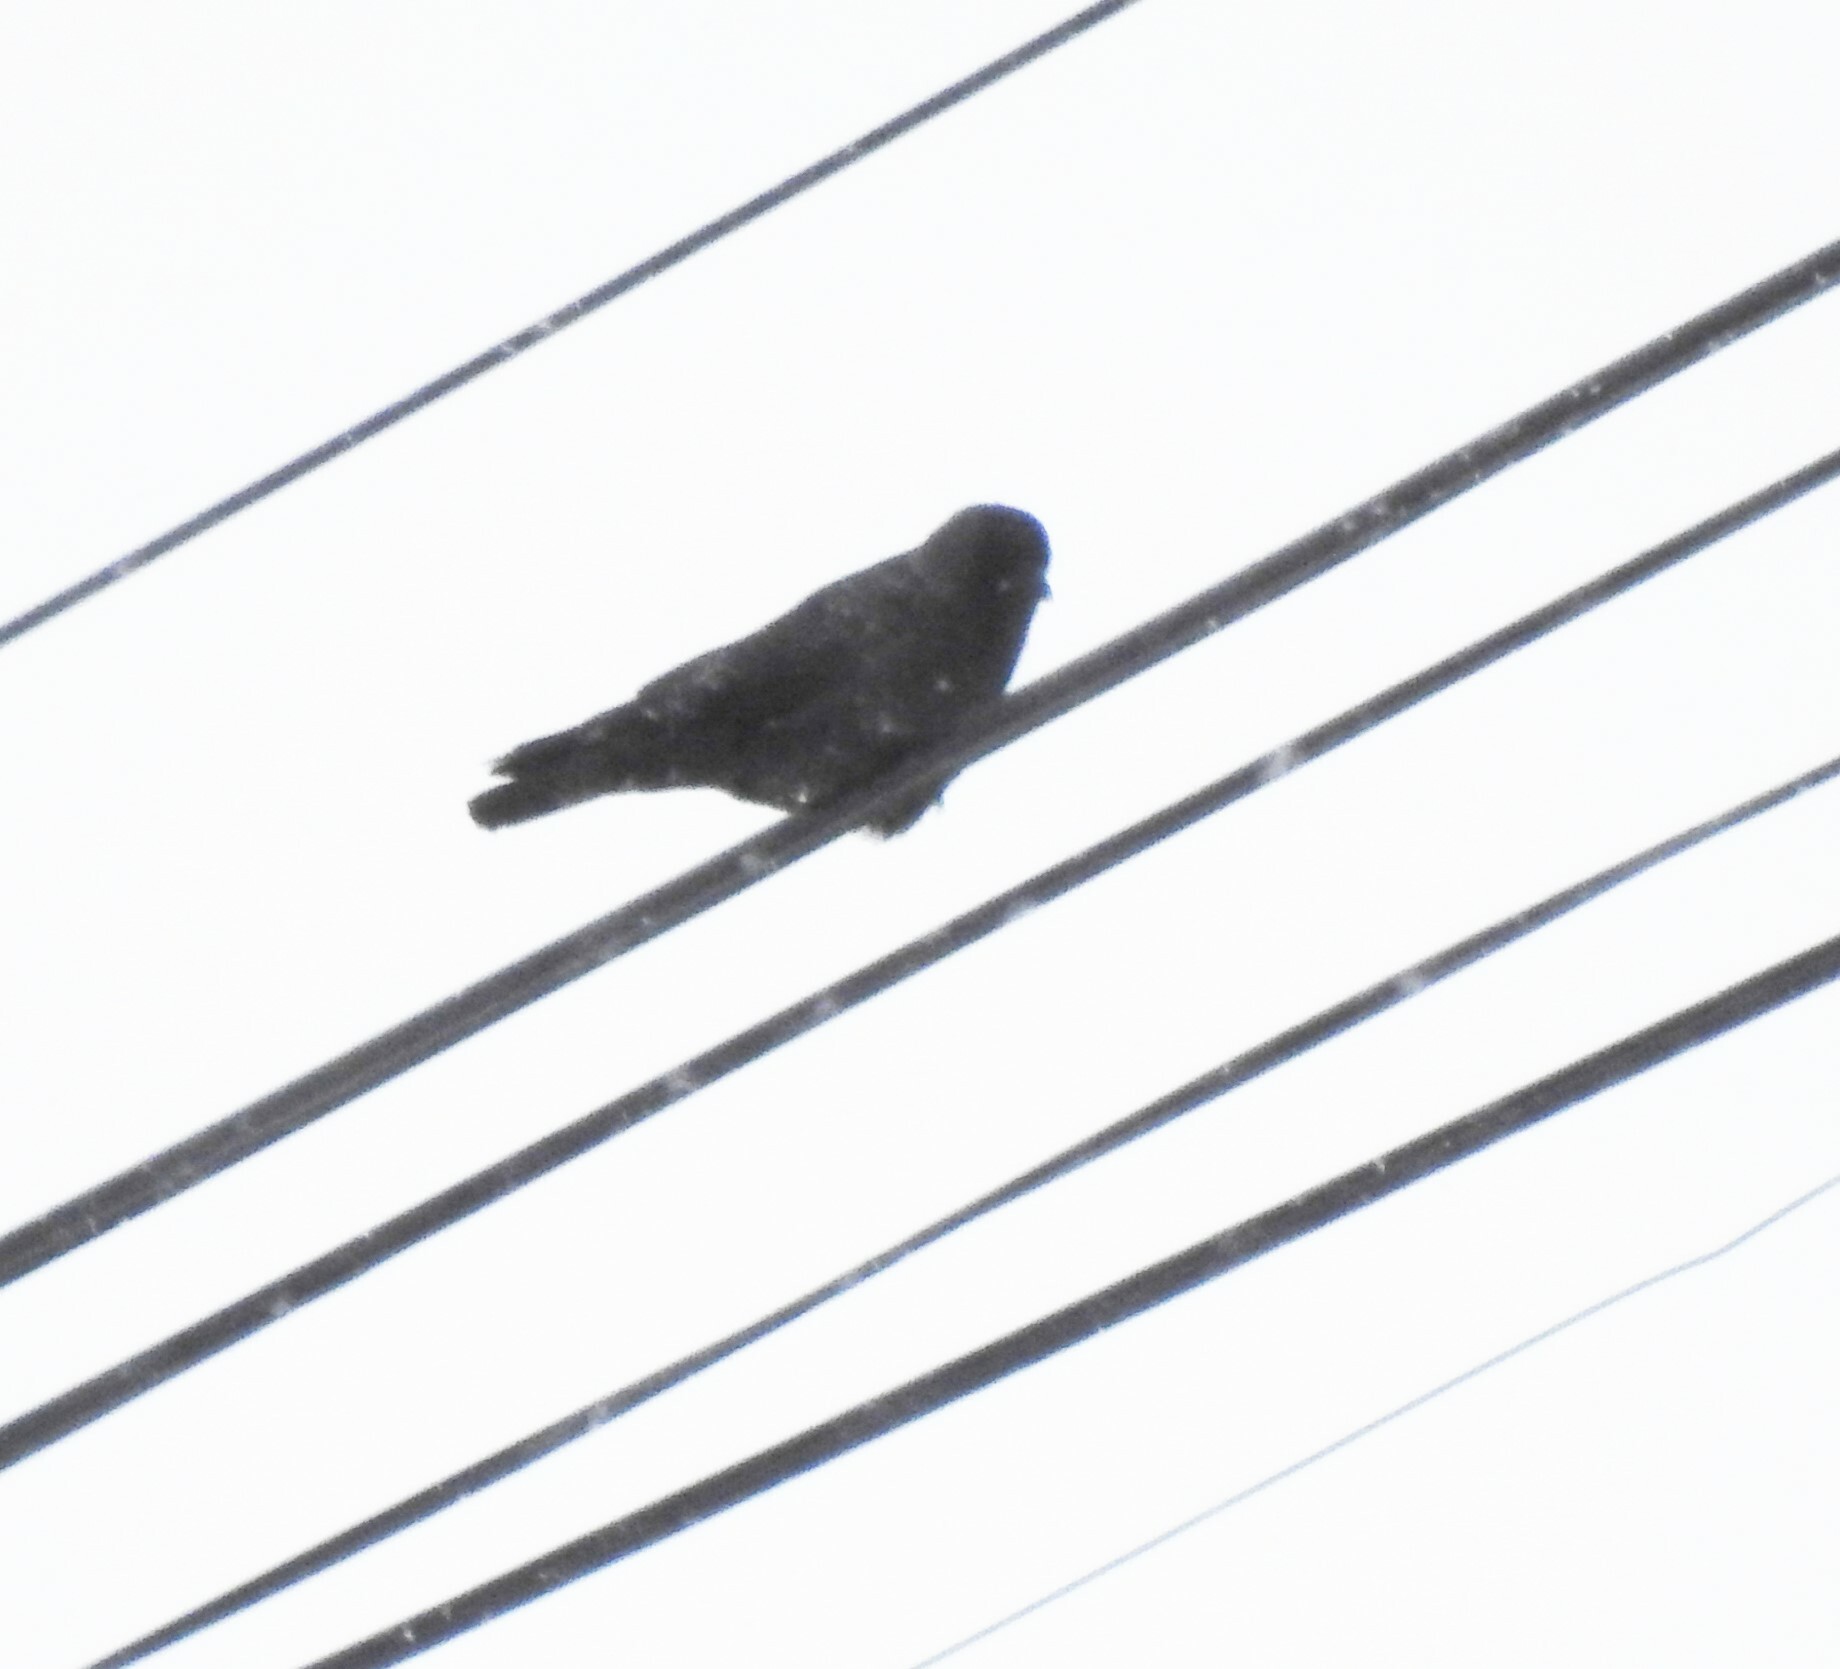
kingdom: Animalia
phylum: Chordata
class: Aves
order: Passeriformes
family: Corvidae
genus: Coloeus
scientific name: Coloeus monedula
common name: Western jackdaw
